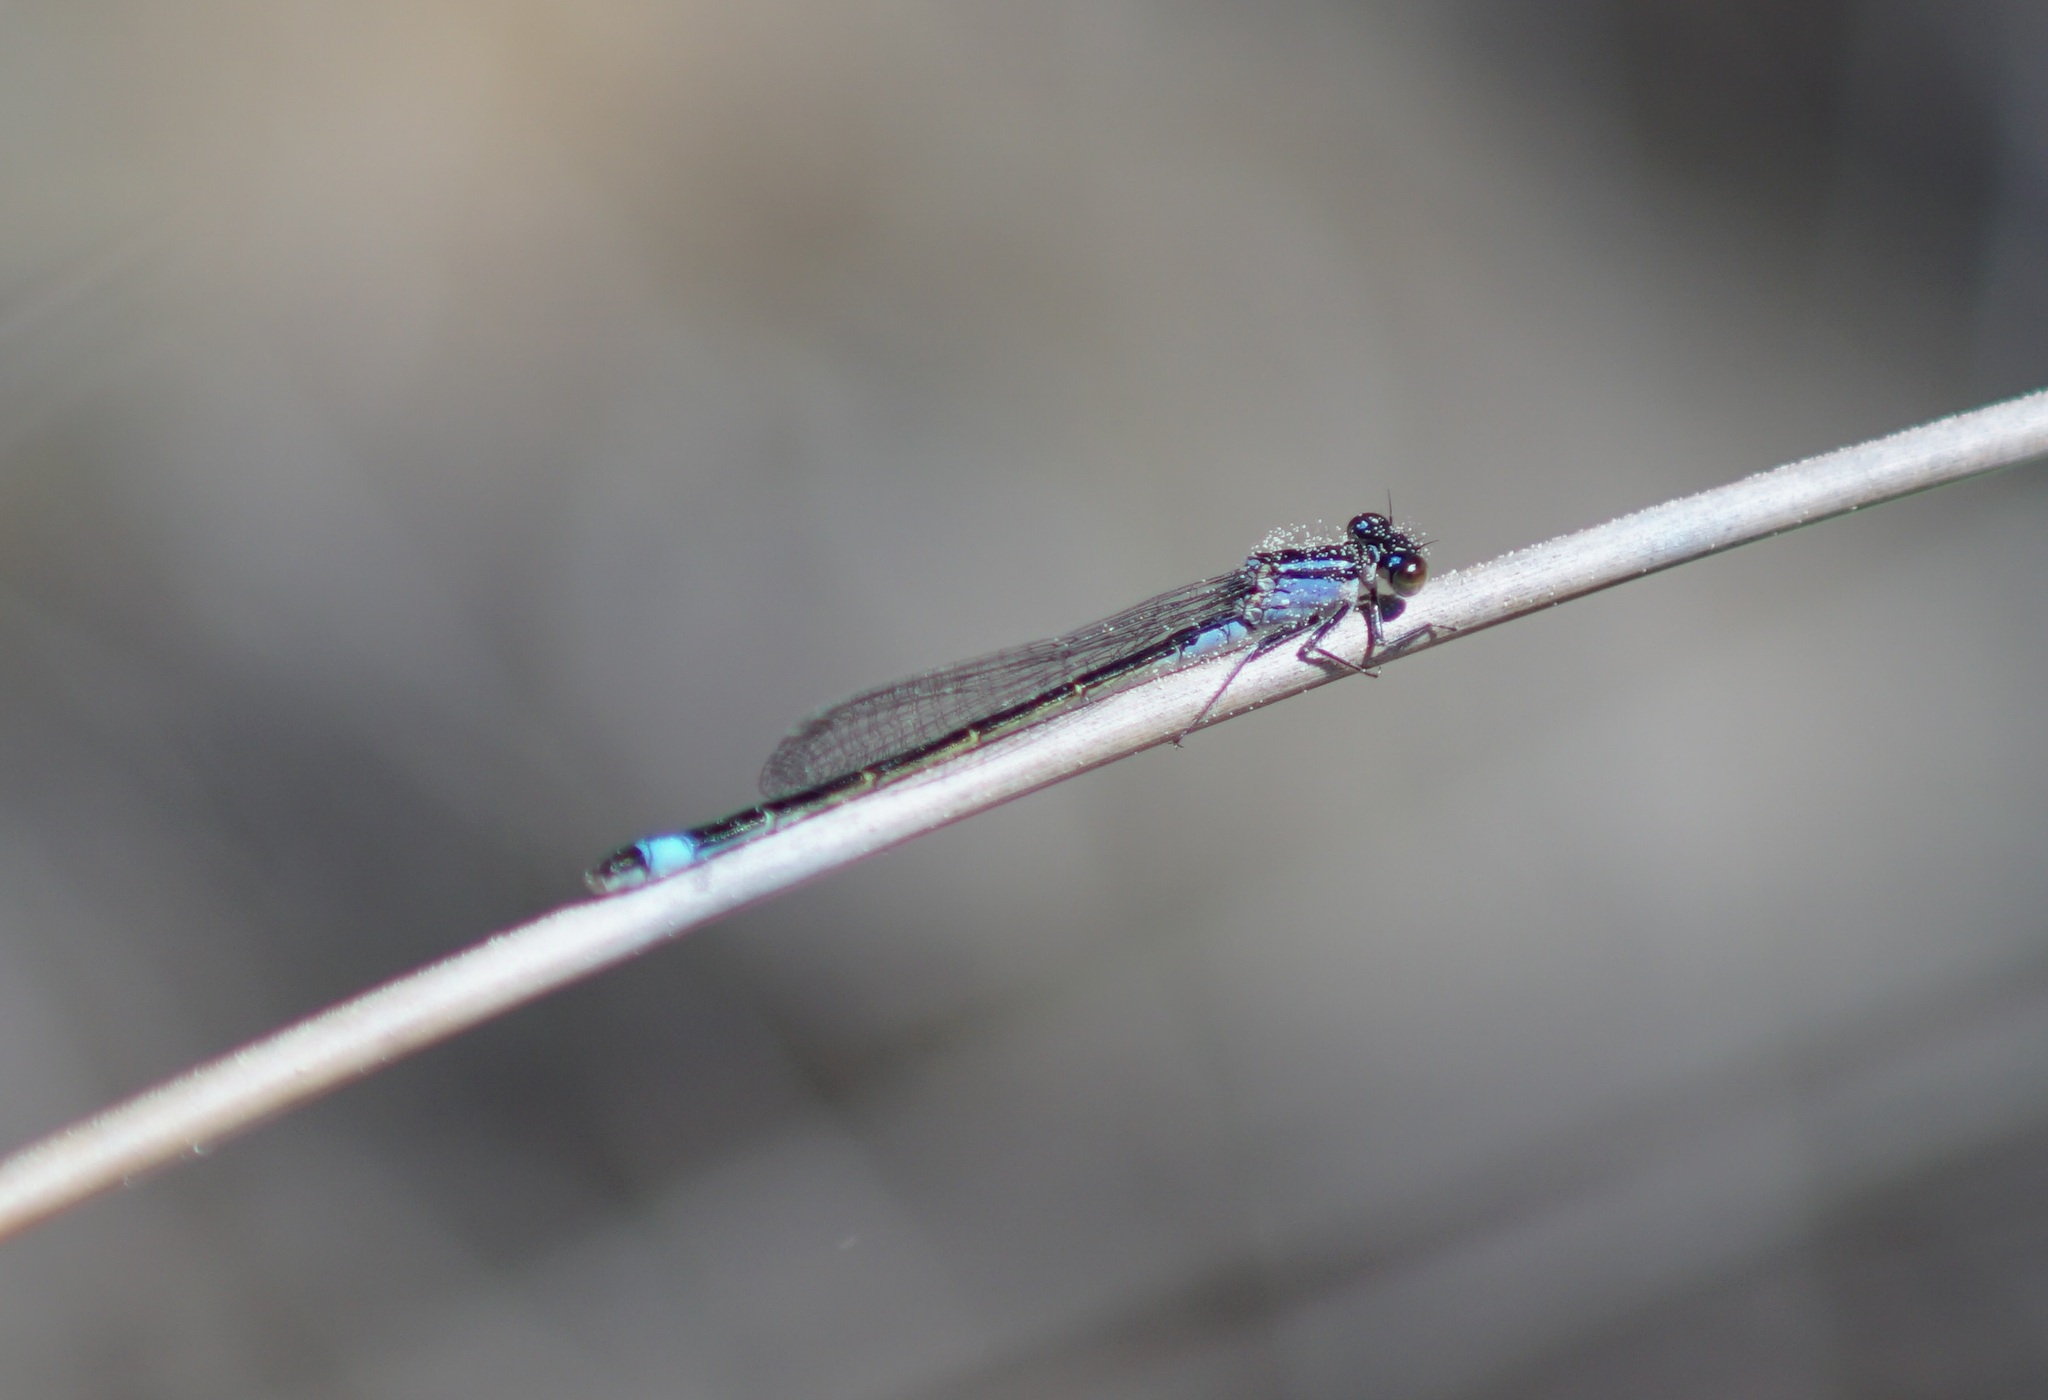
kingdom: Animalia
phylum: Arthropoda
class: Insecta
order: Odonata
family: Coenagrionidae
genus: Ischnura
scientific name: Ischnura elegans
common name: Blue-tailed damselfly
